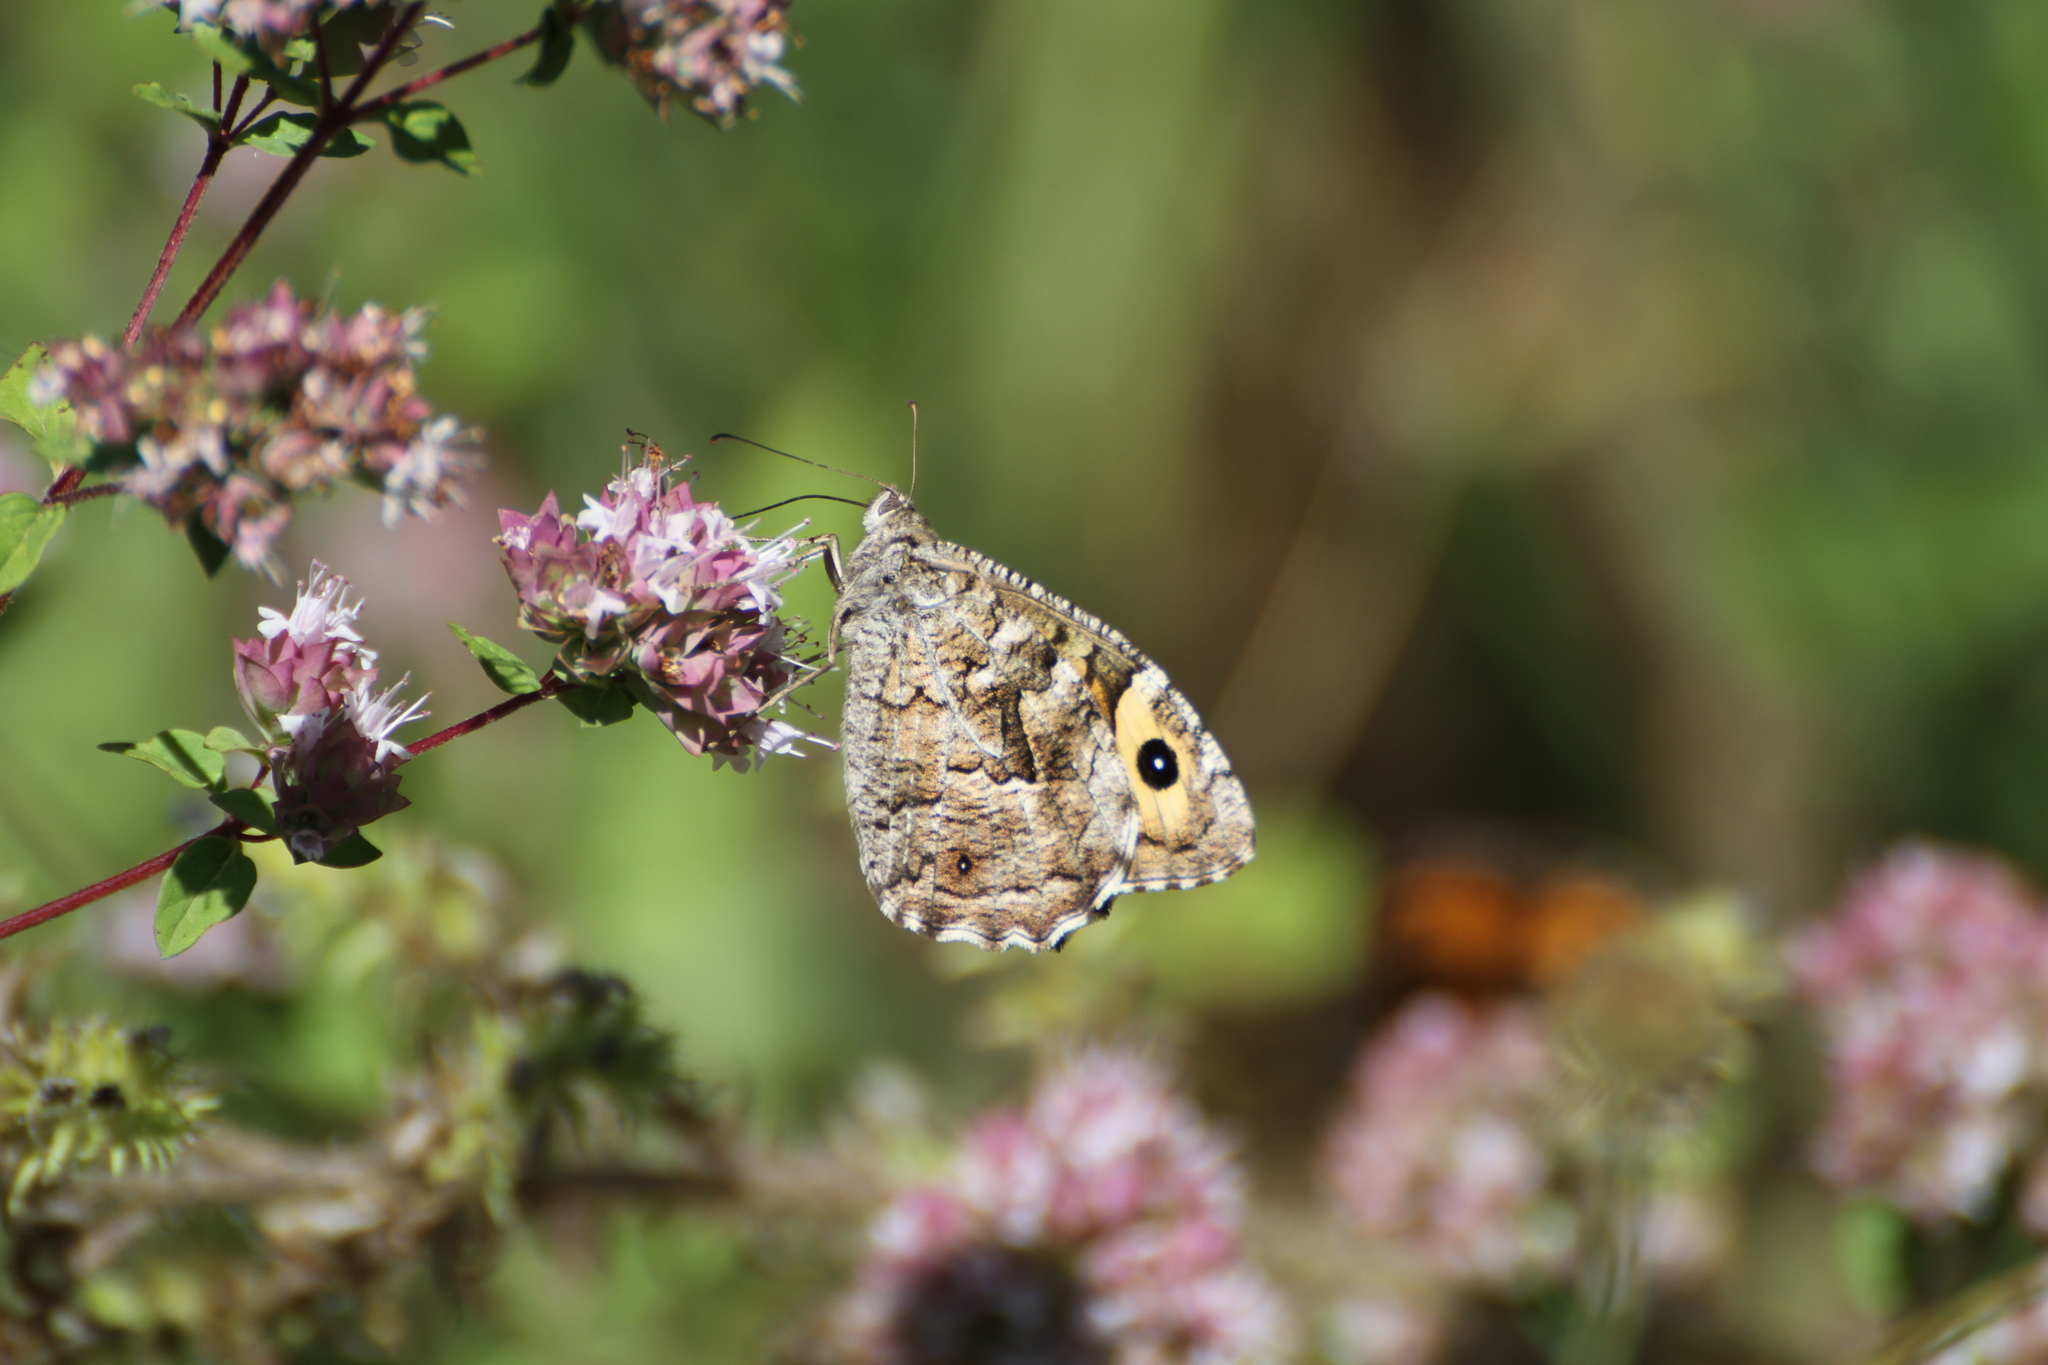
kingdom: Animalia
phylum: Arthropoda
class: Insecta
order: Lepidoptera
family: Nymphalidae
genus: Hipparchia
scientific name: Hipparchia semele
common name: Grayling
